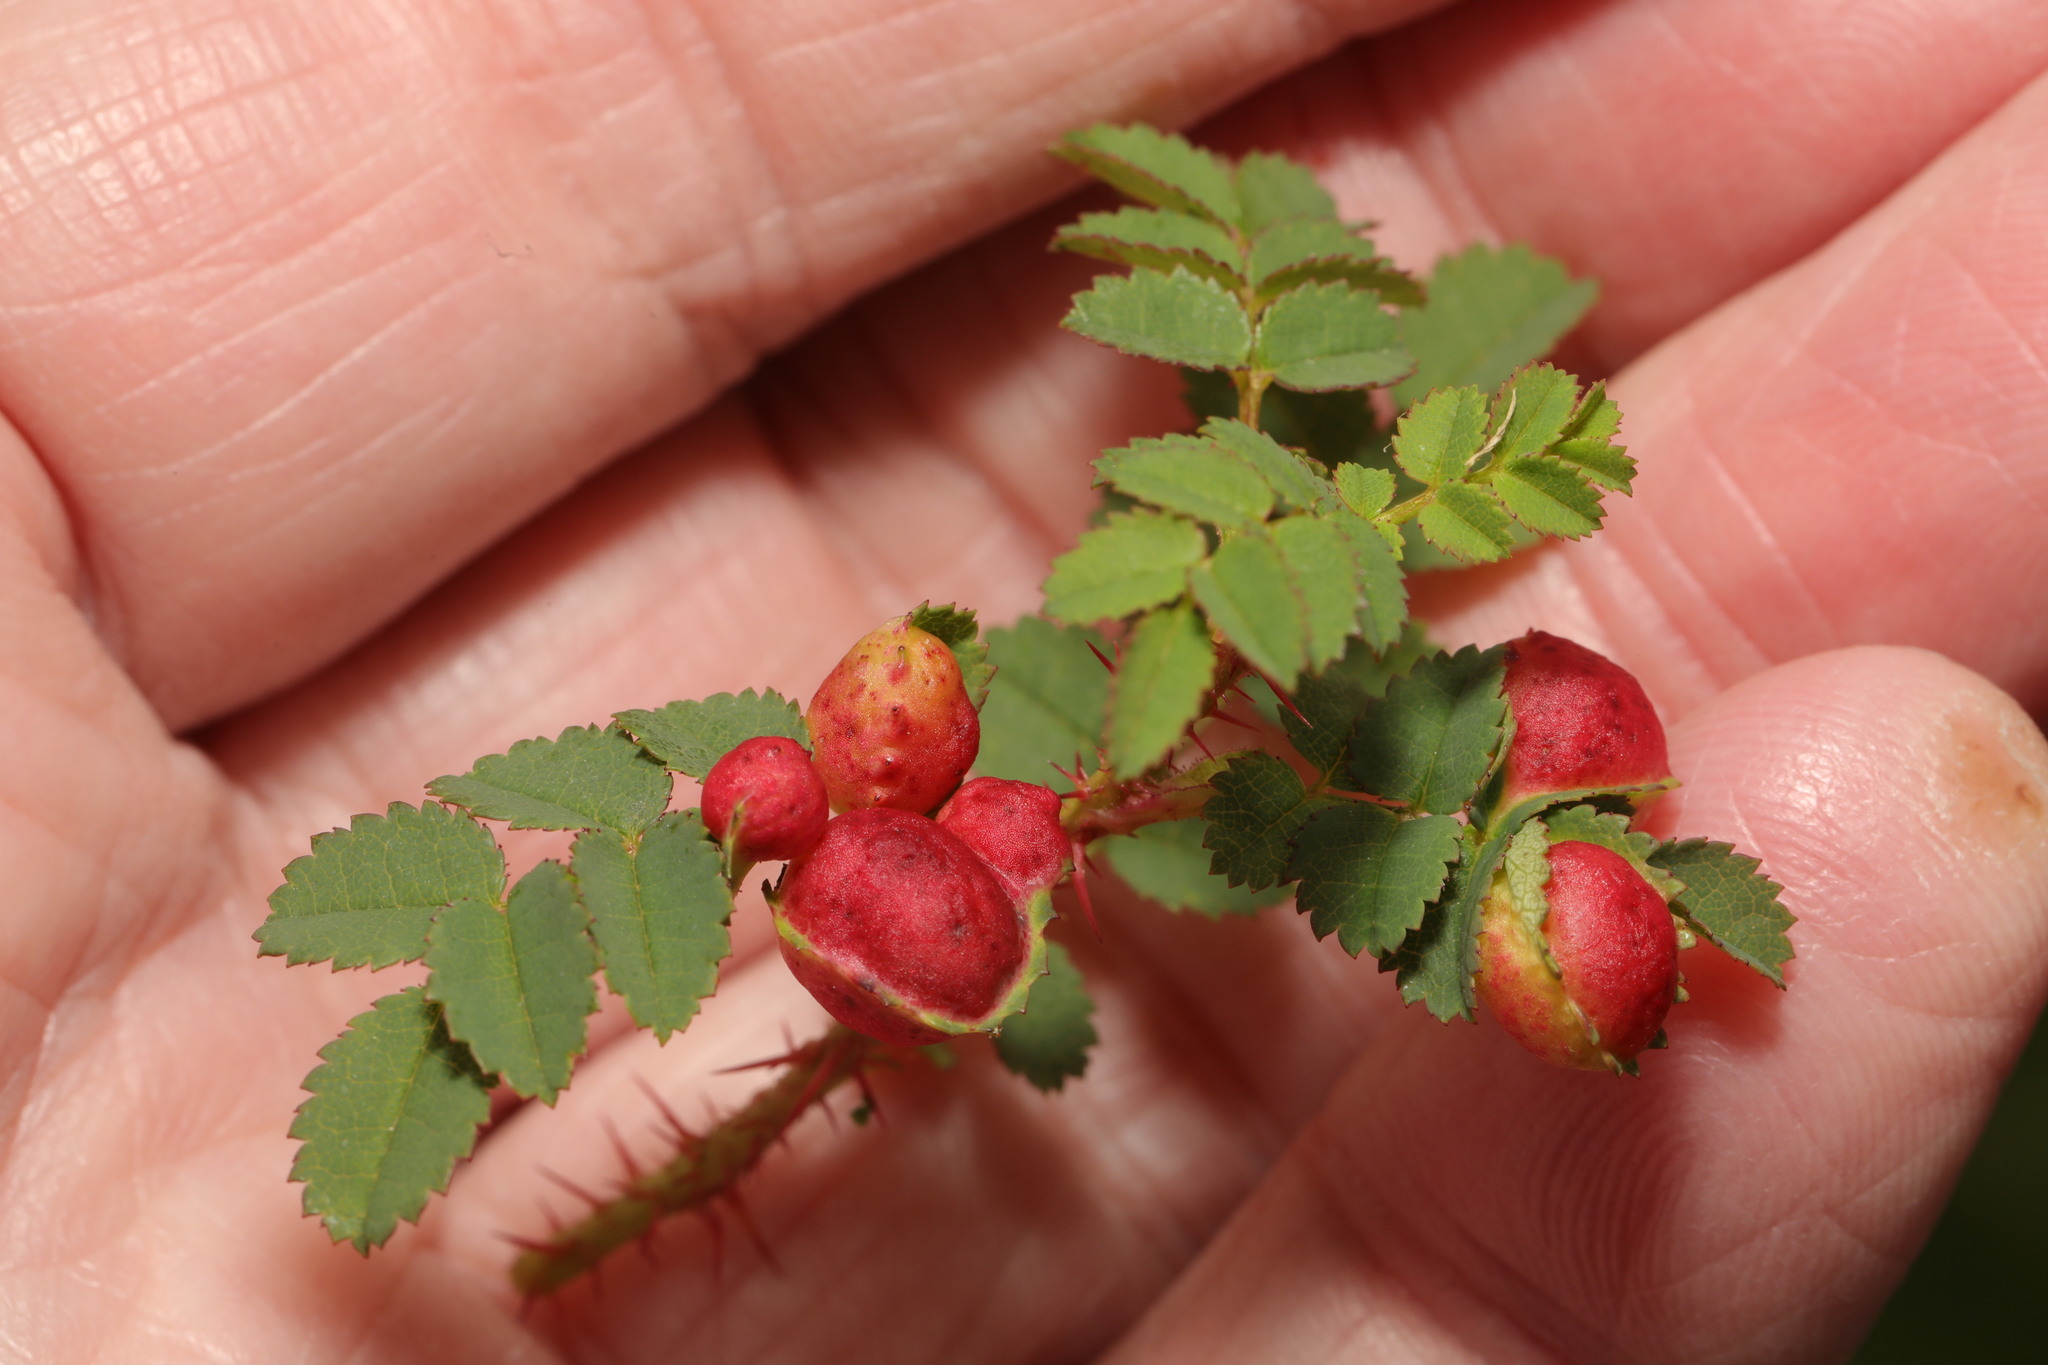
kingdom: Animalia
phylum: Arthropoda
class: Insecta
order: Hymenoptera
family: Cynipidae
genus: Diplolepis
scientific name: Diplolepis spinosissimae
